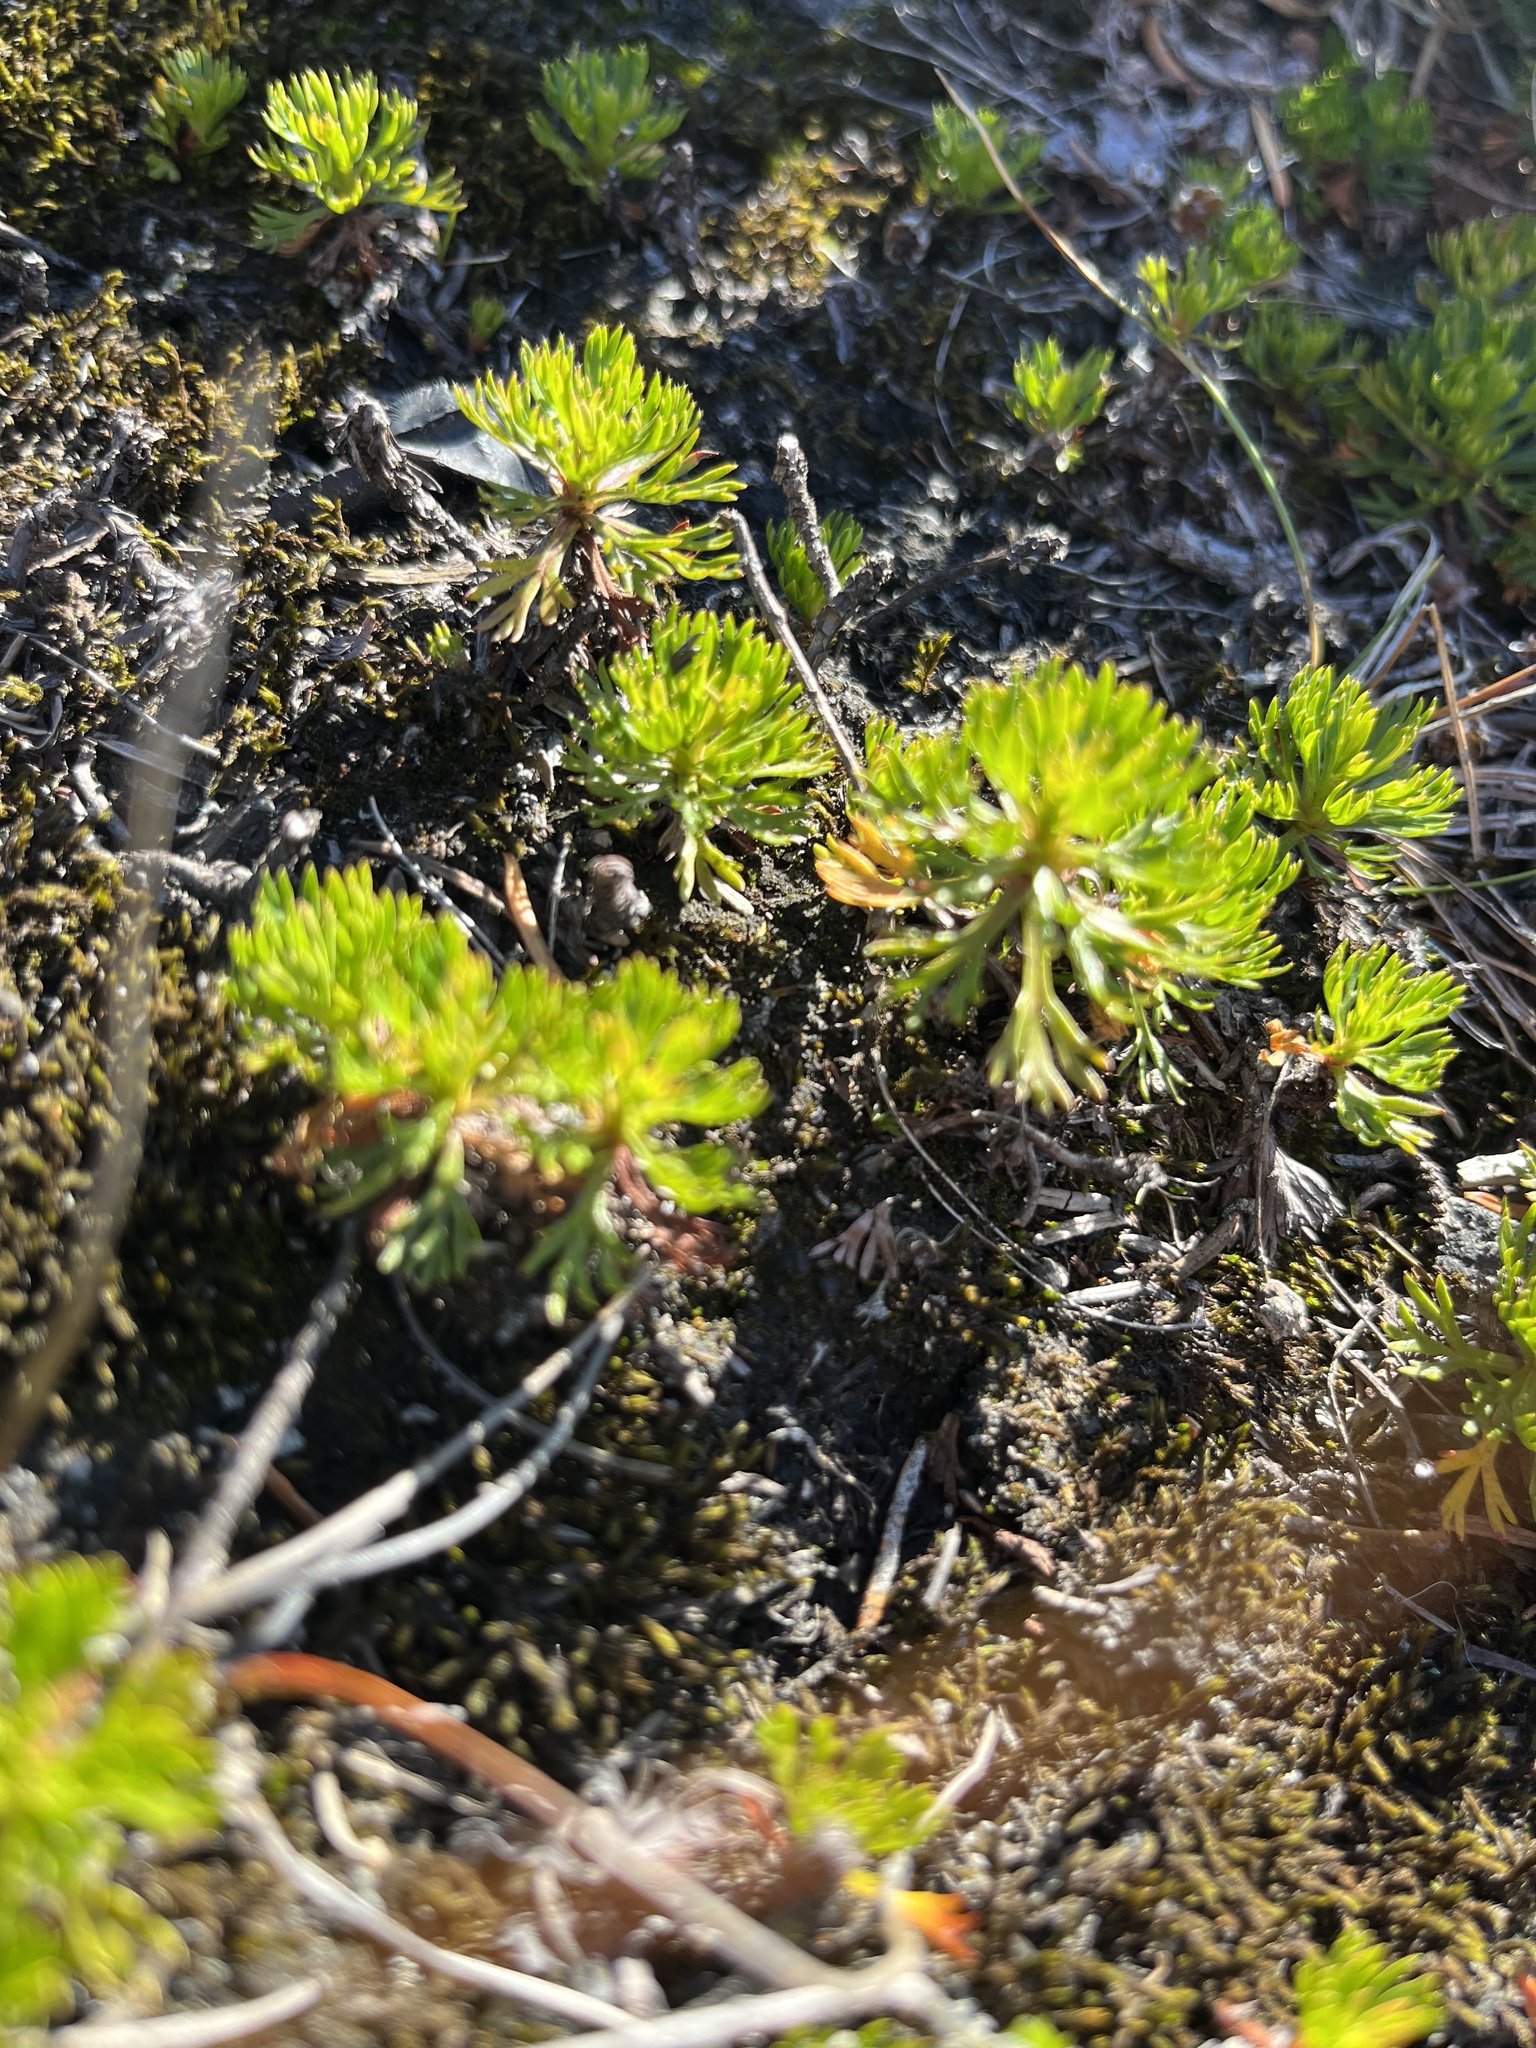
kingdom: Plantae
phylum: Tracheophyta
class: Magnoliopsida
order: Rosales
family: Rosaceae
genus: Luetkea
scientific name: Luetkea pectinata
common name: Partridgefoot
